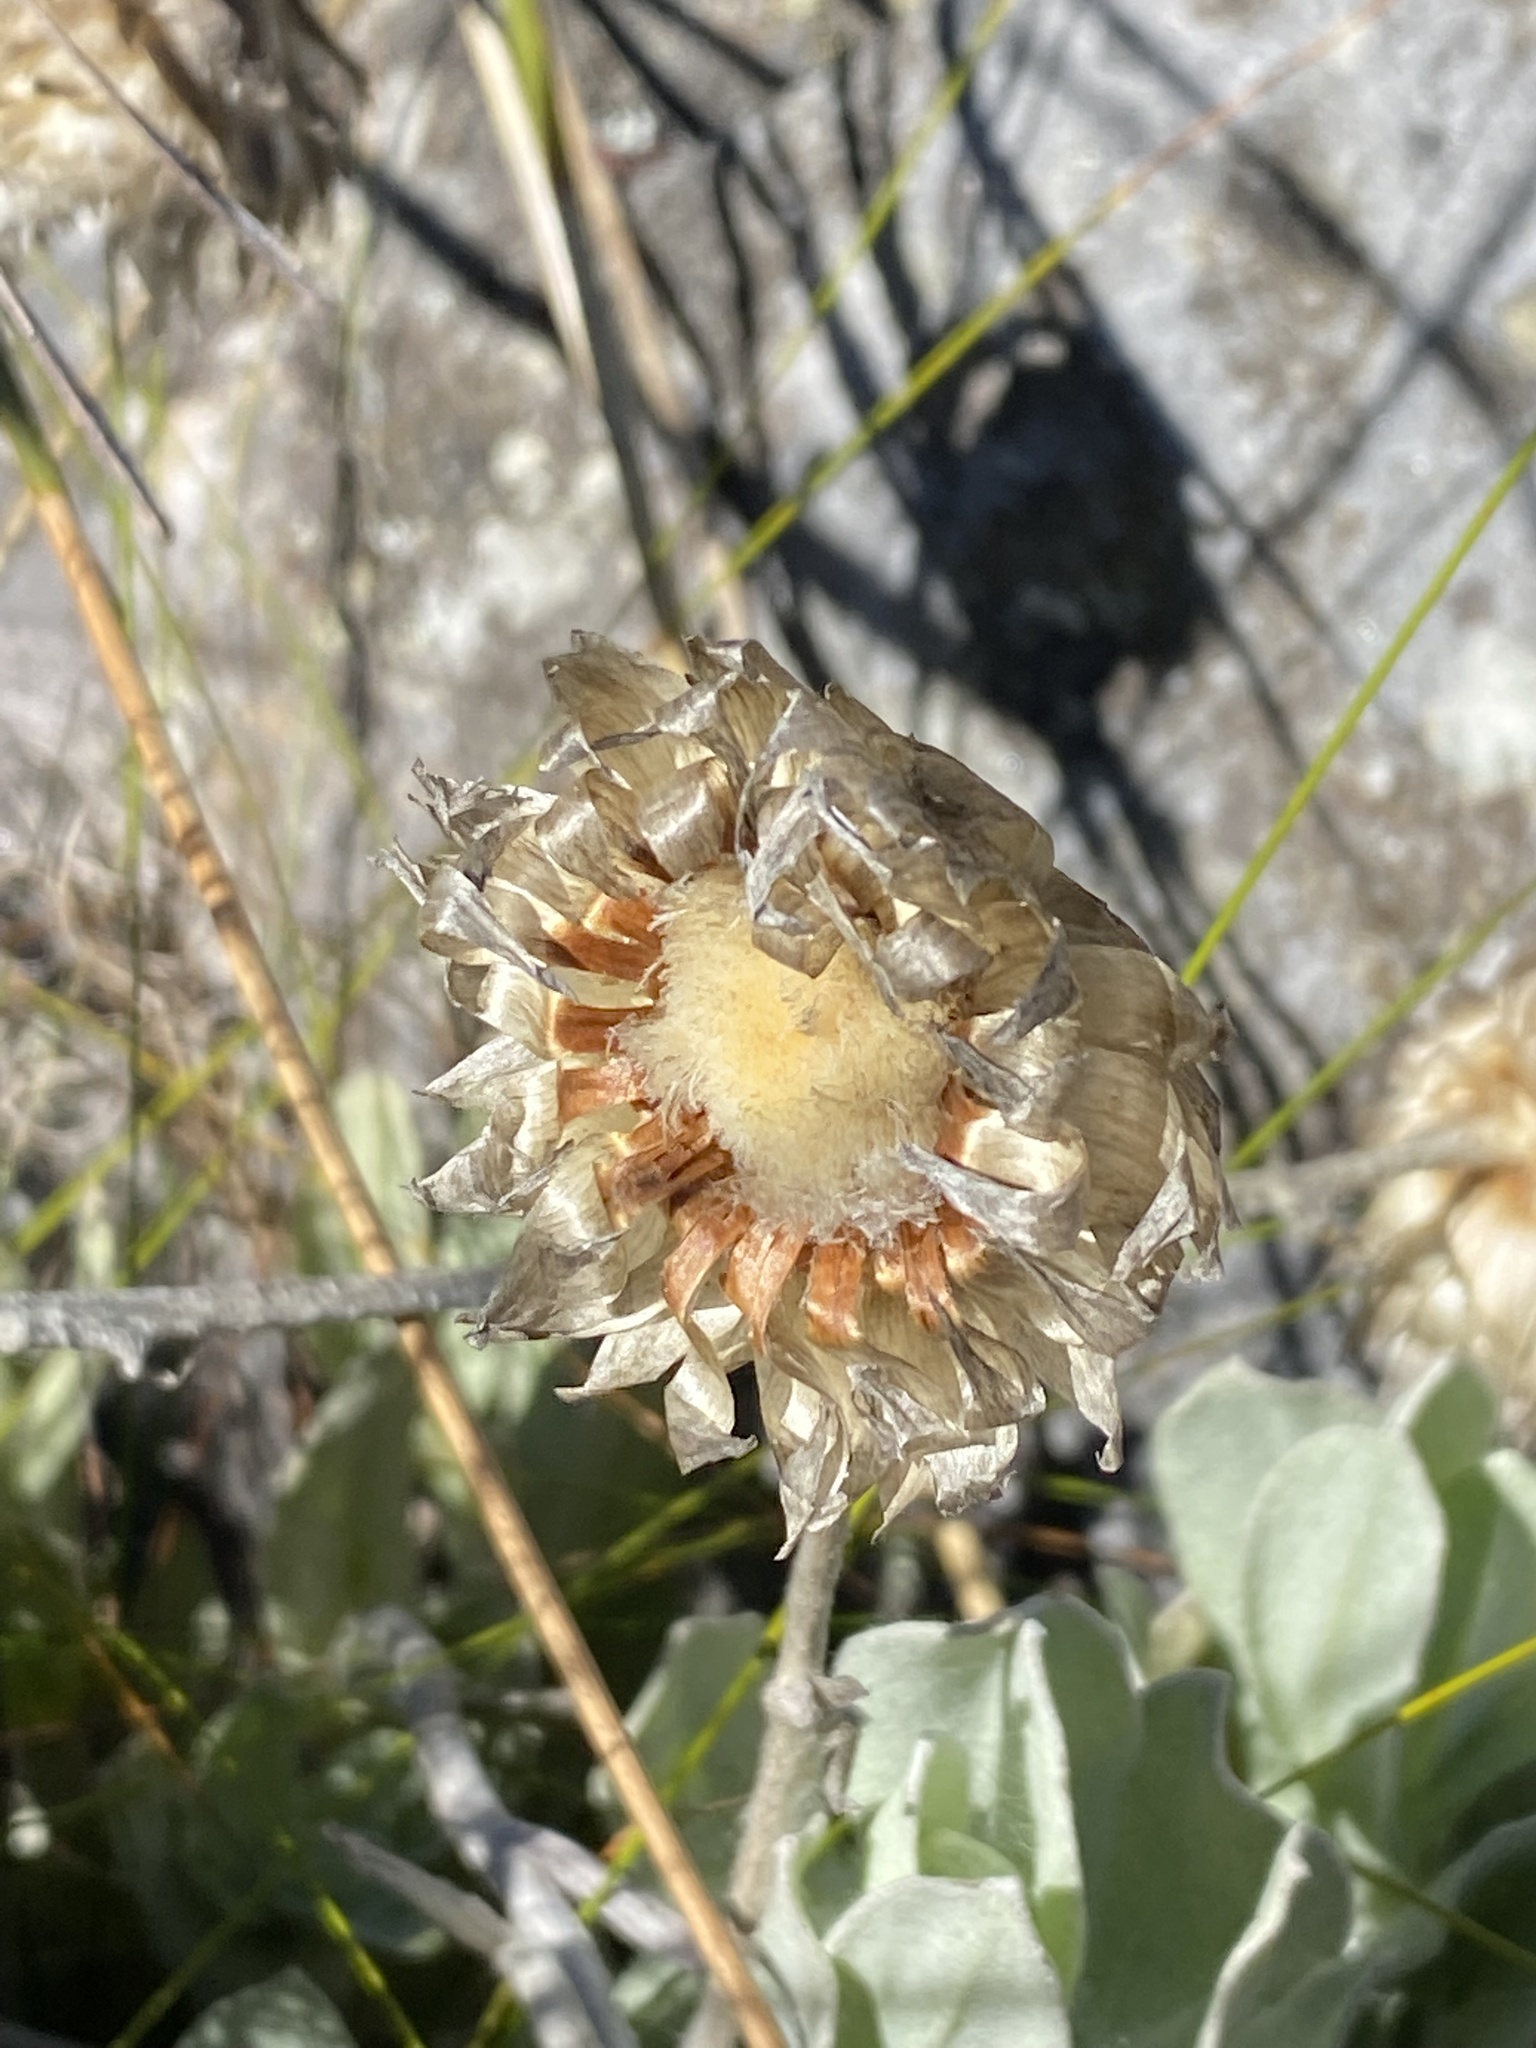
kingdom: Plantae
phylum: Tracheophyta
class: Magnoliopsida
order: Asterales
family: Asteraceae
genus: Syncarpha
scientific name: Syncarpha speciosissima
